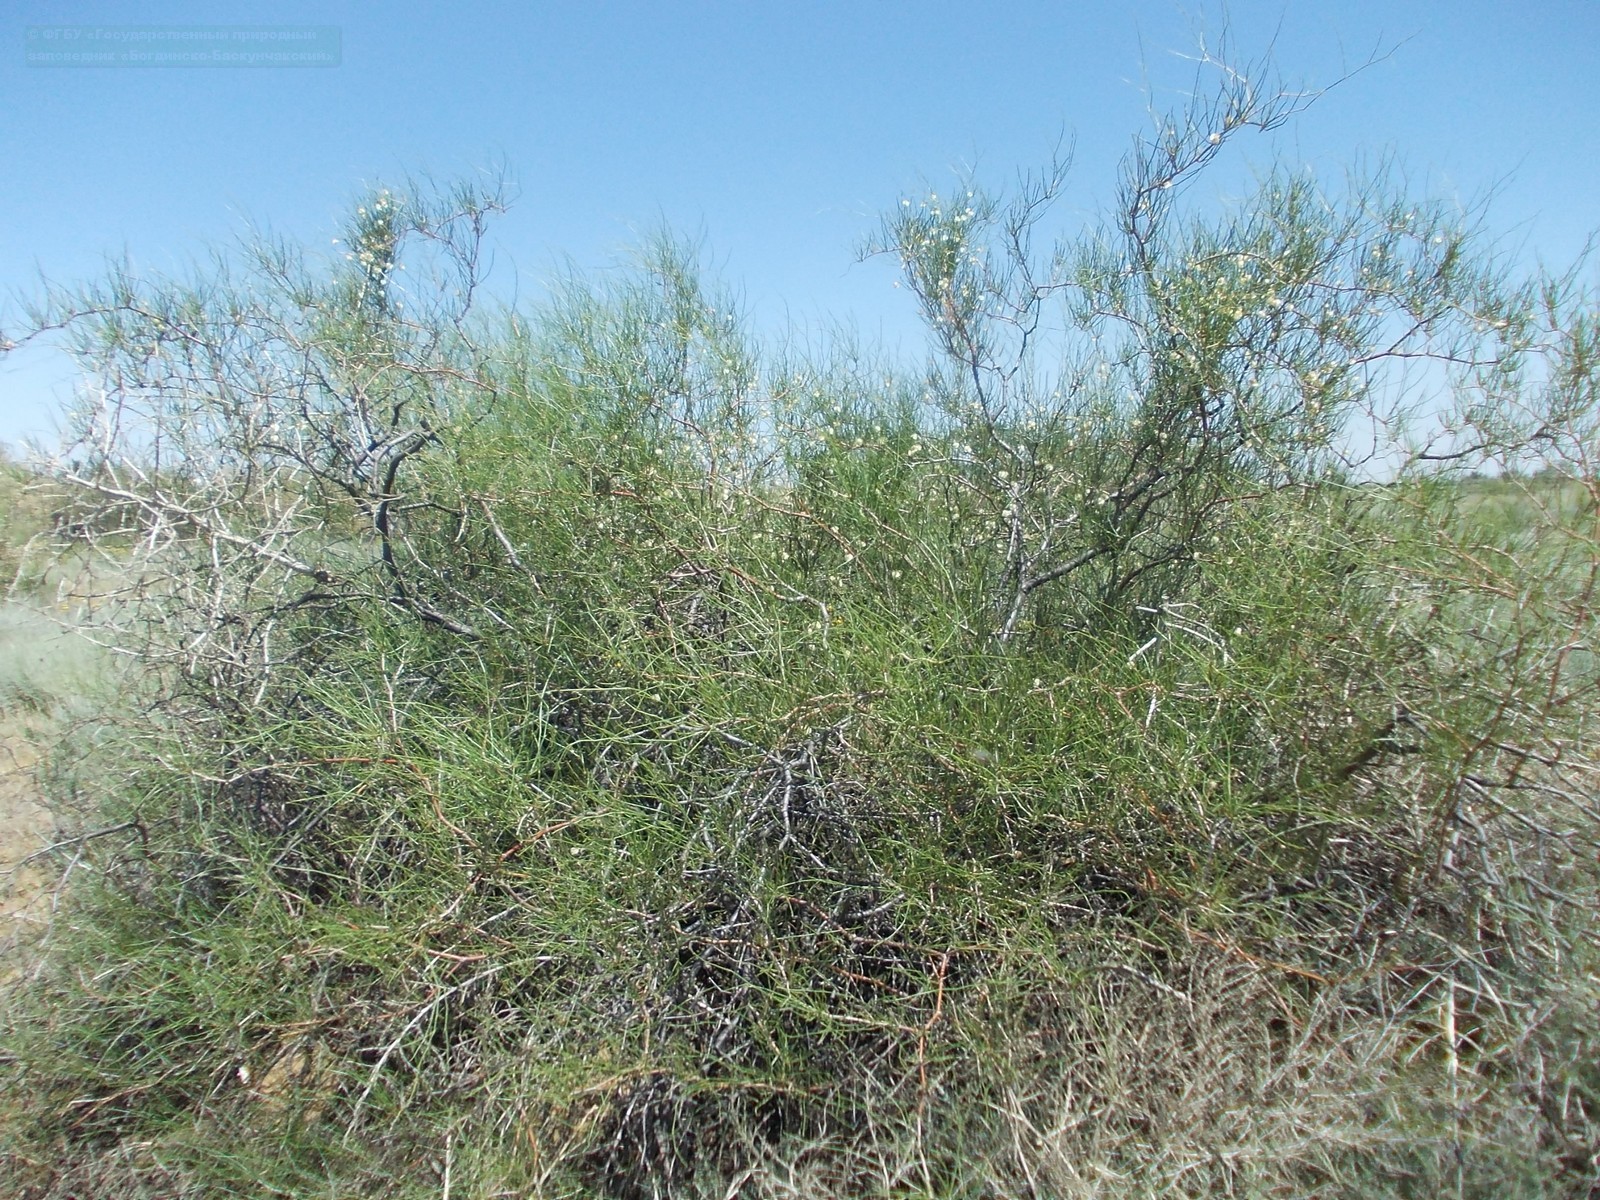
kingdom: Plantae
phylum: Tracheophyta
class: Magnoliopsida
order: Caryophyllales
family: Polygonaceae
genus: Calligonum
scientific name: Calligonum aphyllum
